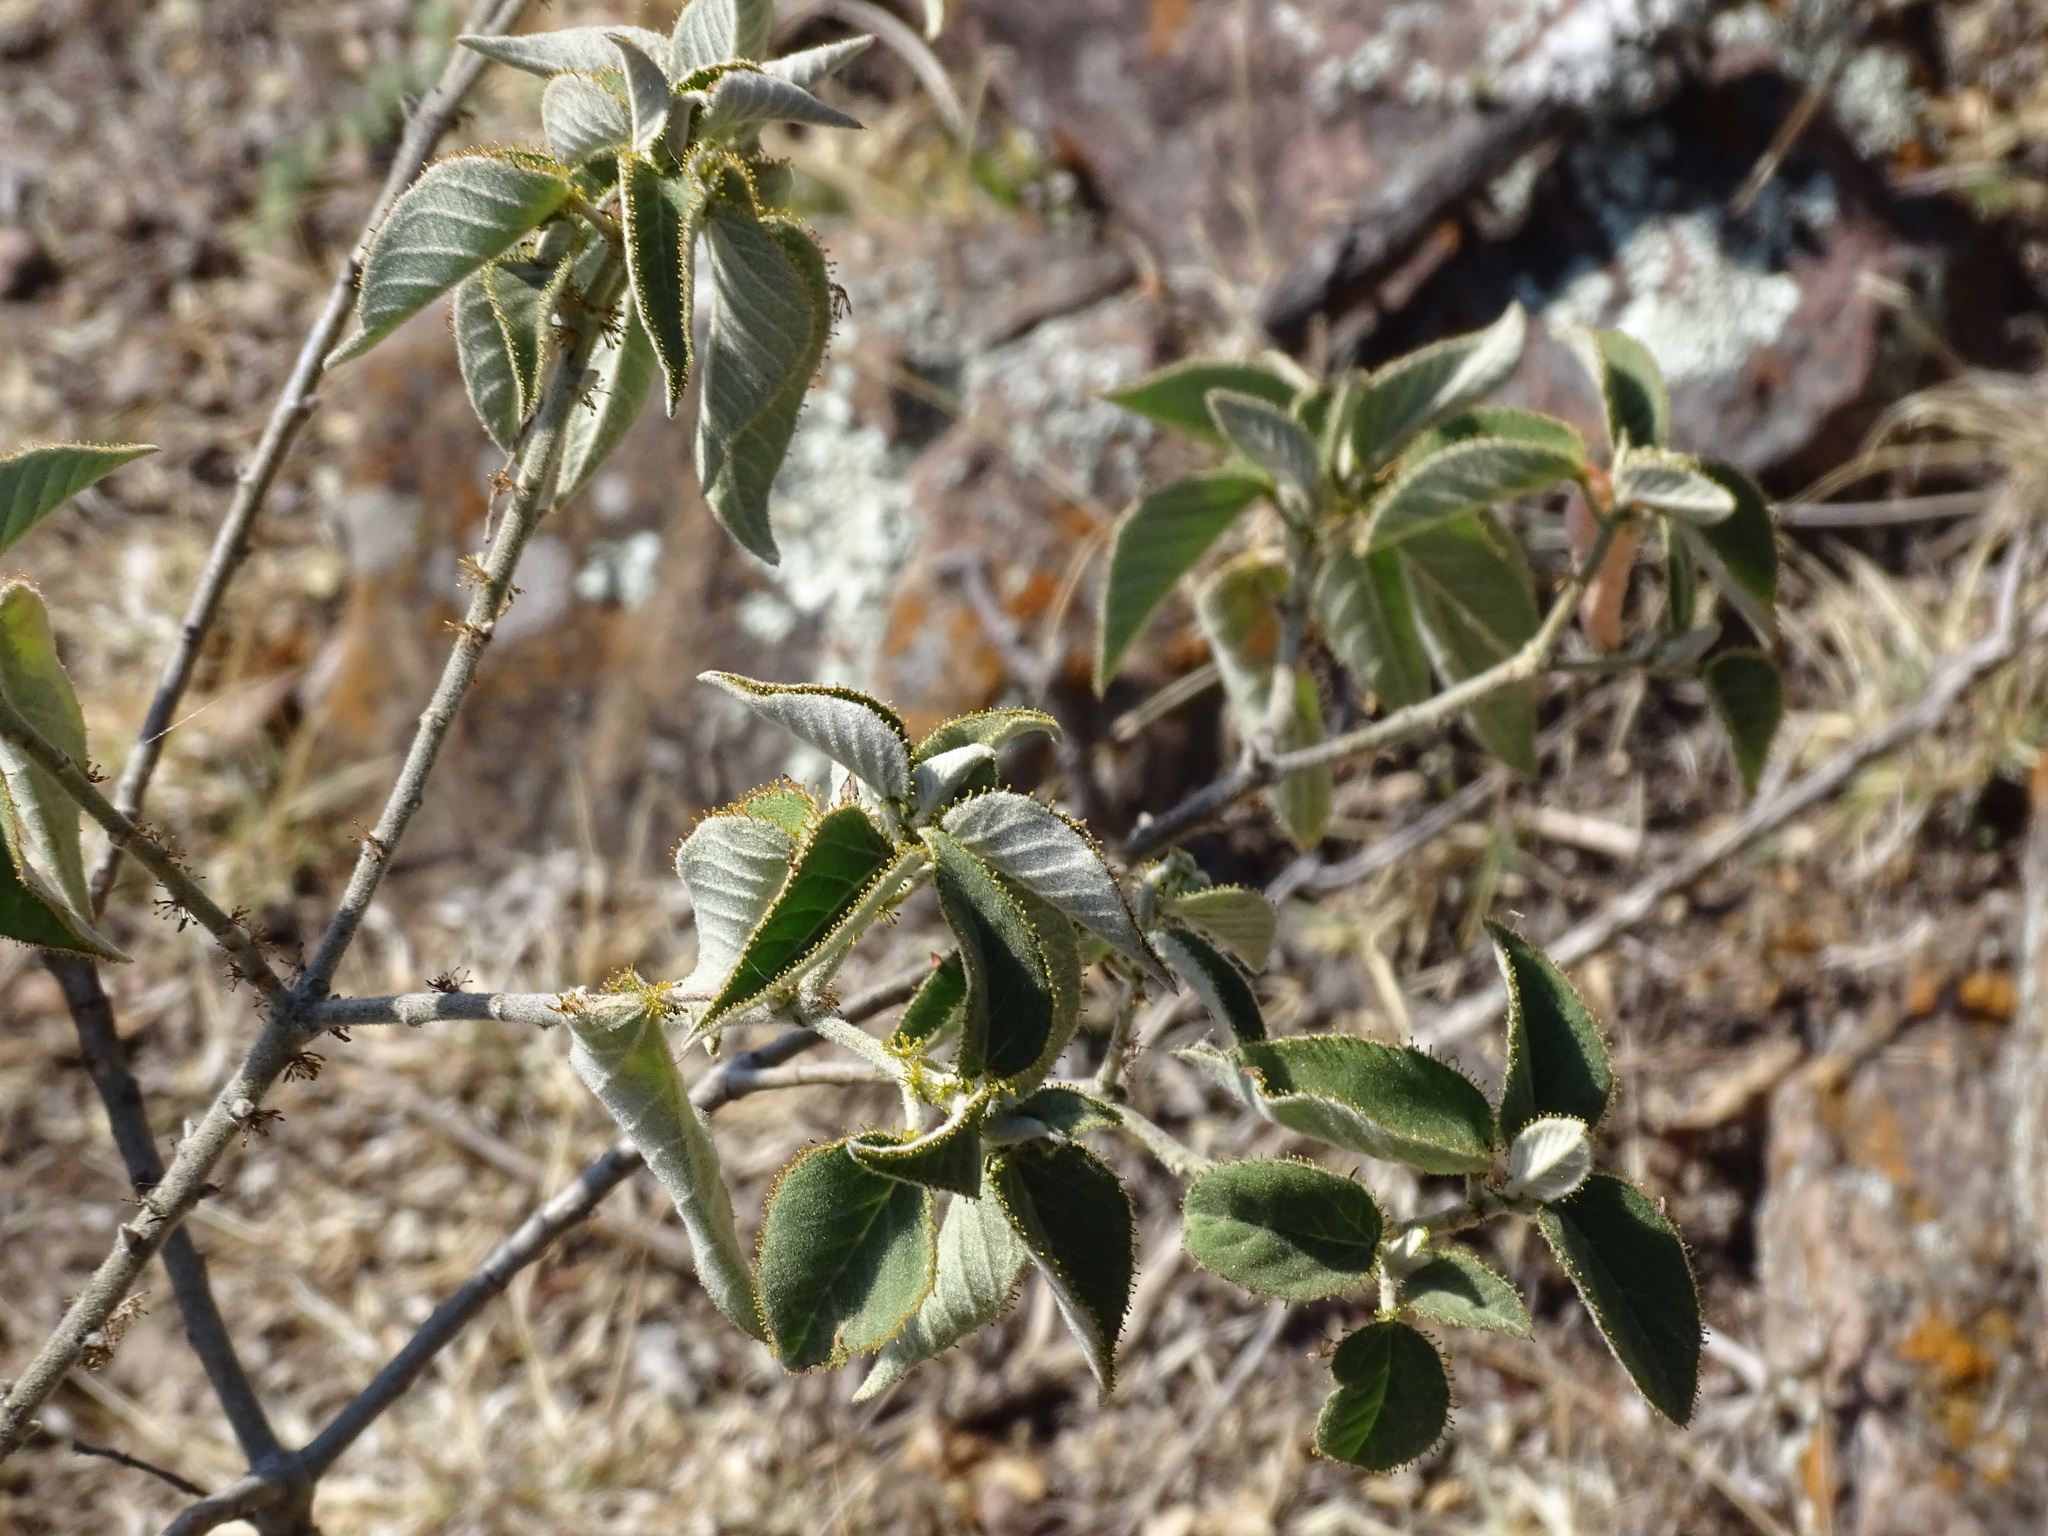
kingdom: Plantae
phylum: Tracheophyta
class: Magnoliopsida
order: Malpighiales
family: Euphorbiaceae
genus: Croton
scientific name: Croton ciliatoglandulifer
